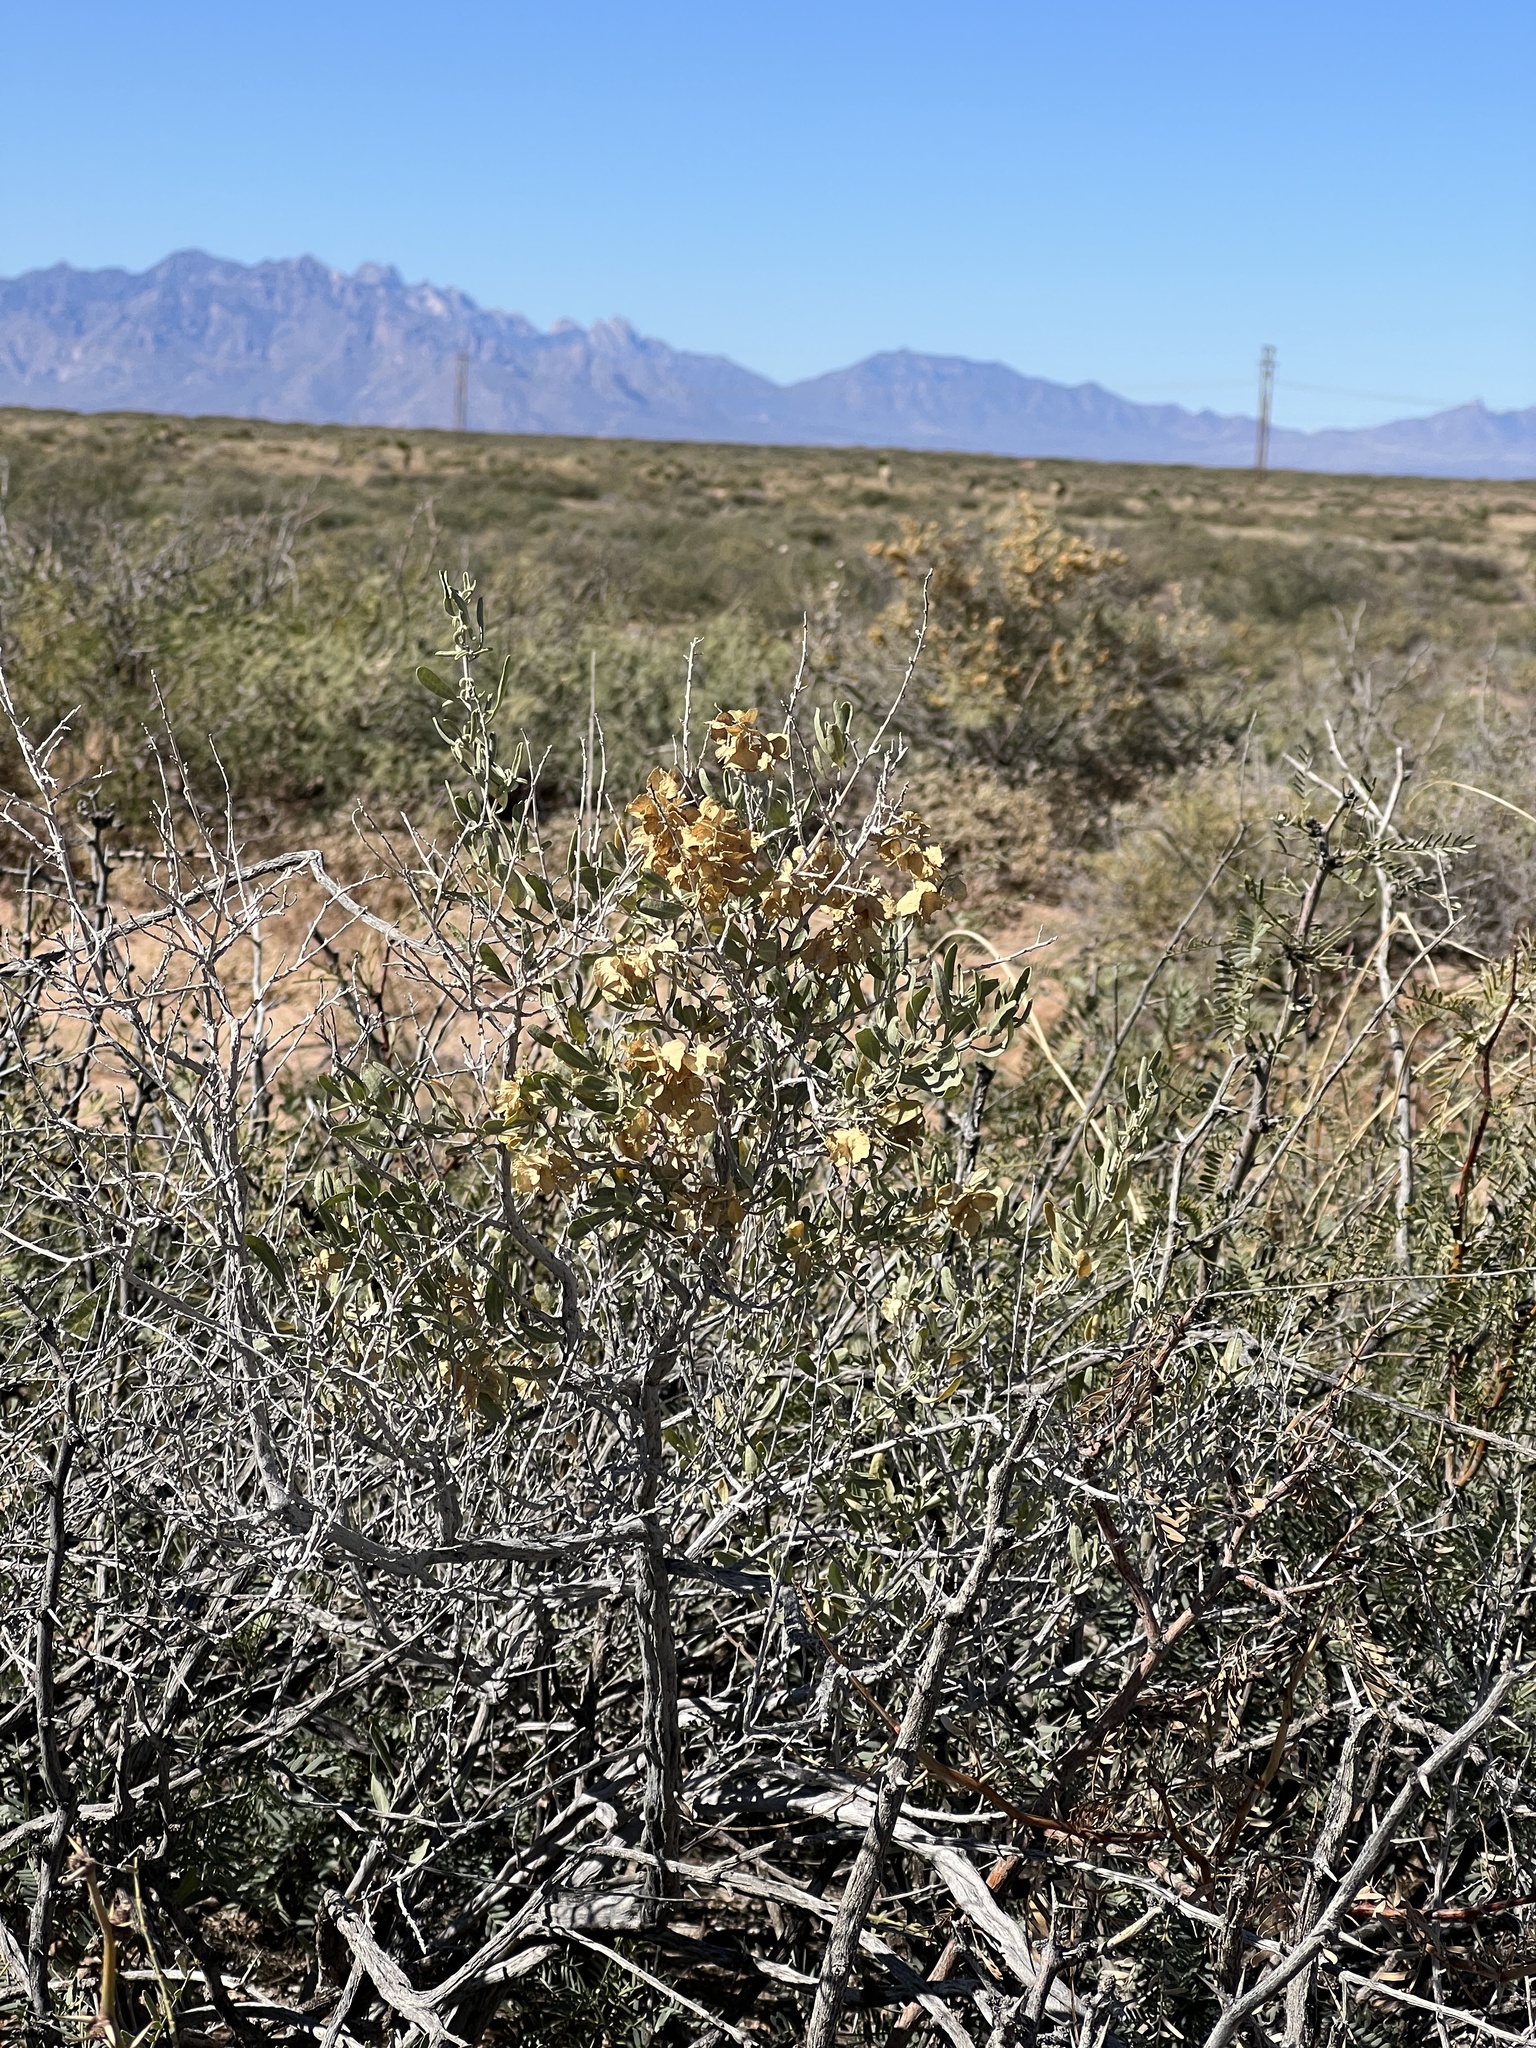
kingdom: Plantae
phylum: Tracheophyta
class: Magnoliopsida
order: Caryophyllales
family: Amaranthaceae
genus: Atriplex
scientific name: Atriplex canescens
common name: Four-wing saltbush
